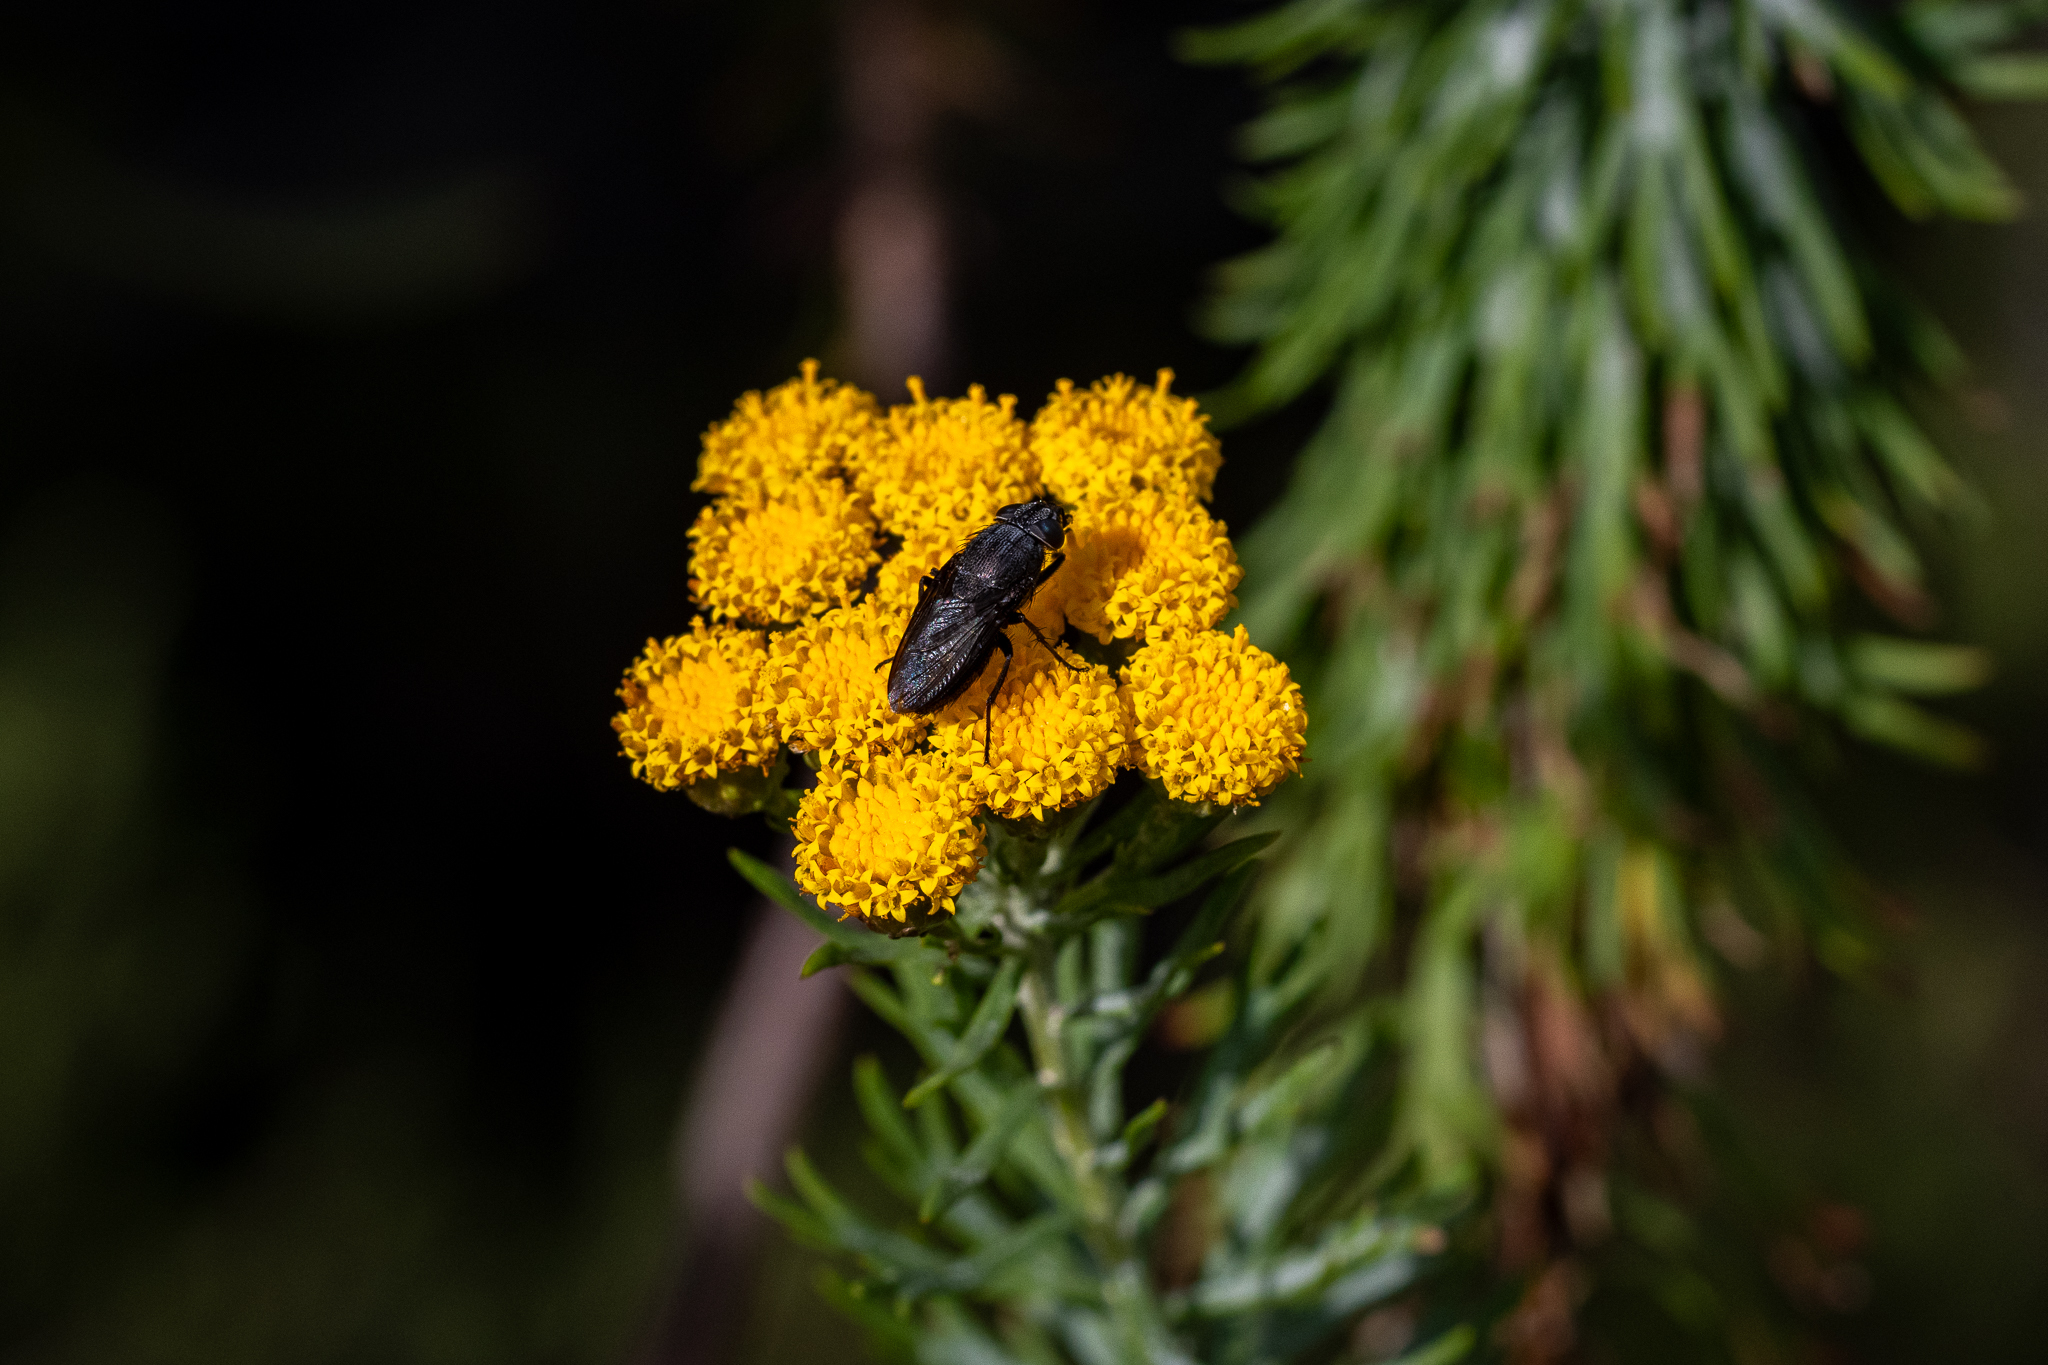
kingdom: Plantae
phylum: Tracheophyta
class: Magnoliopsida
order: Asterales
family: Asteraceae
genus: Athanasia
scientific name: Athanasia trifurcata
